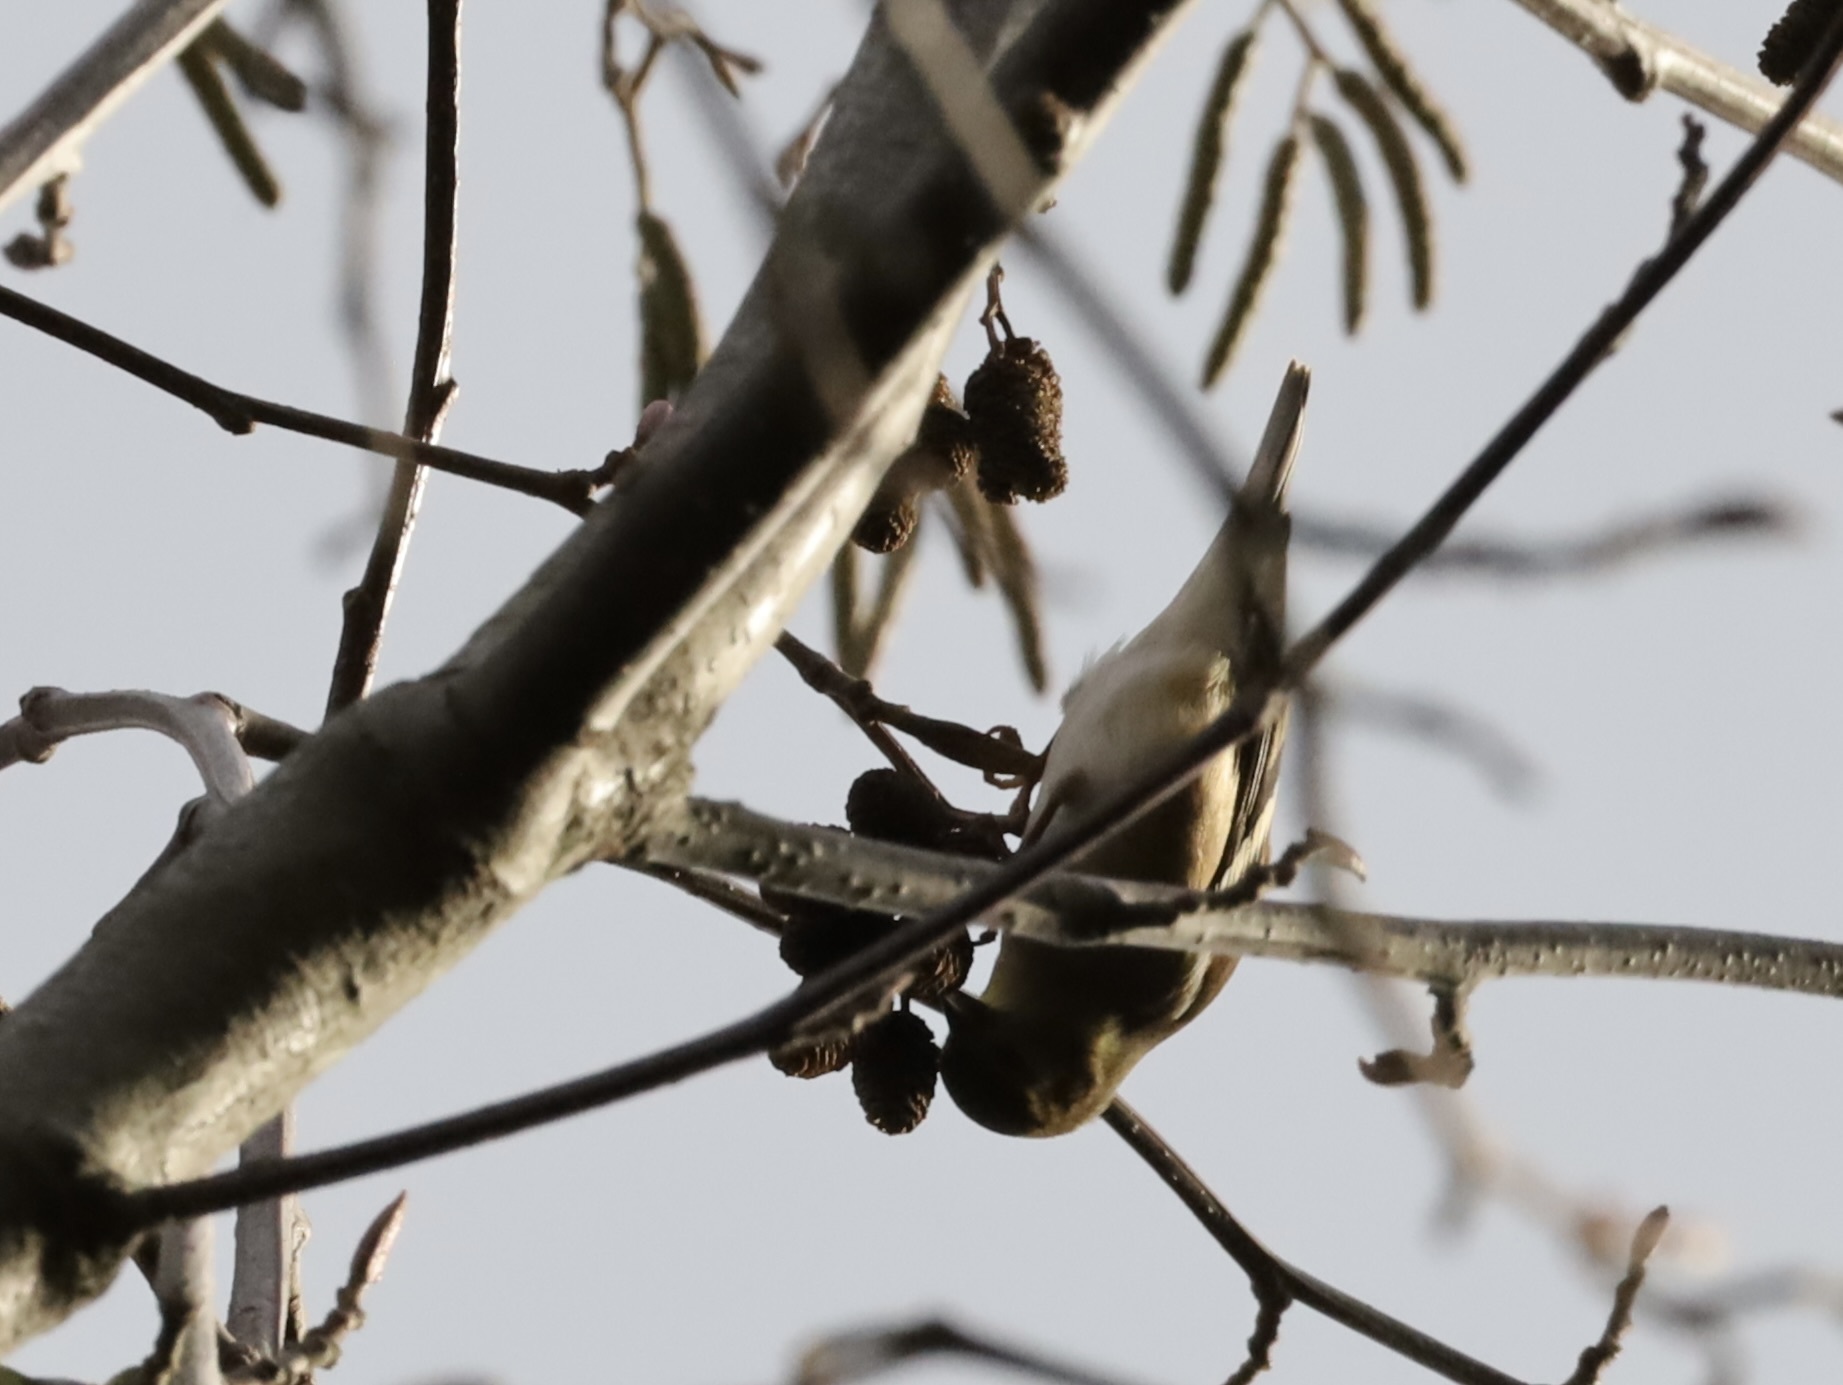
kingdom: Animalia
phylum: Chordata
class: Aves
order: Passeriformes
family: Fringillidae
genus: Spinus
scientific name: Spinus tristis
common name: American goldfinch
